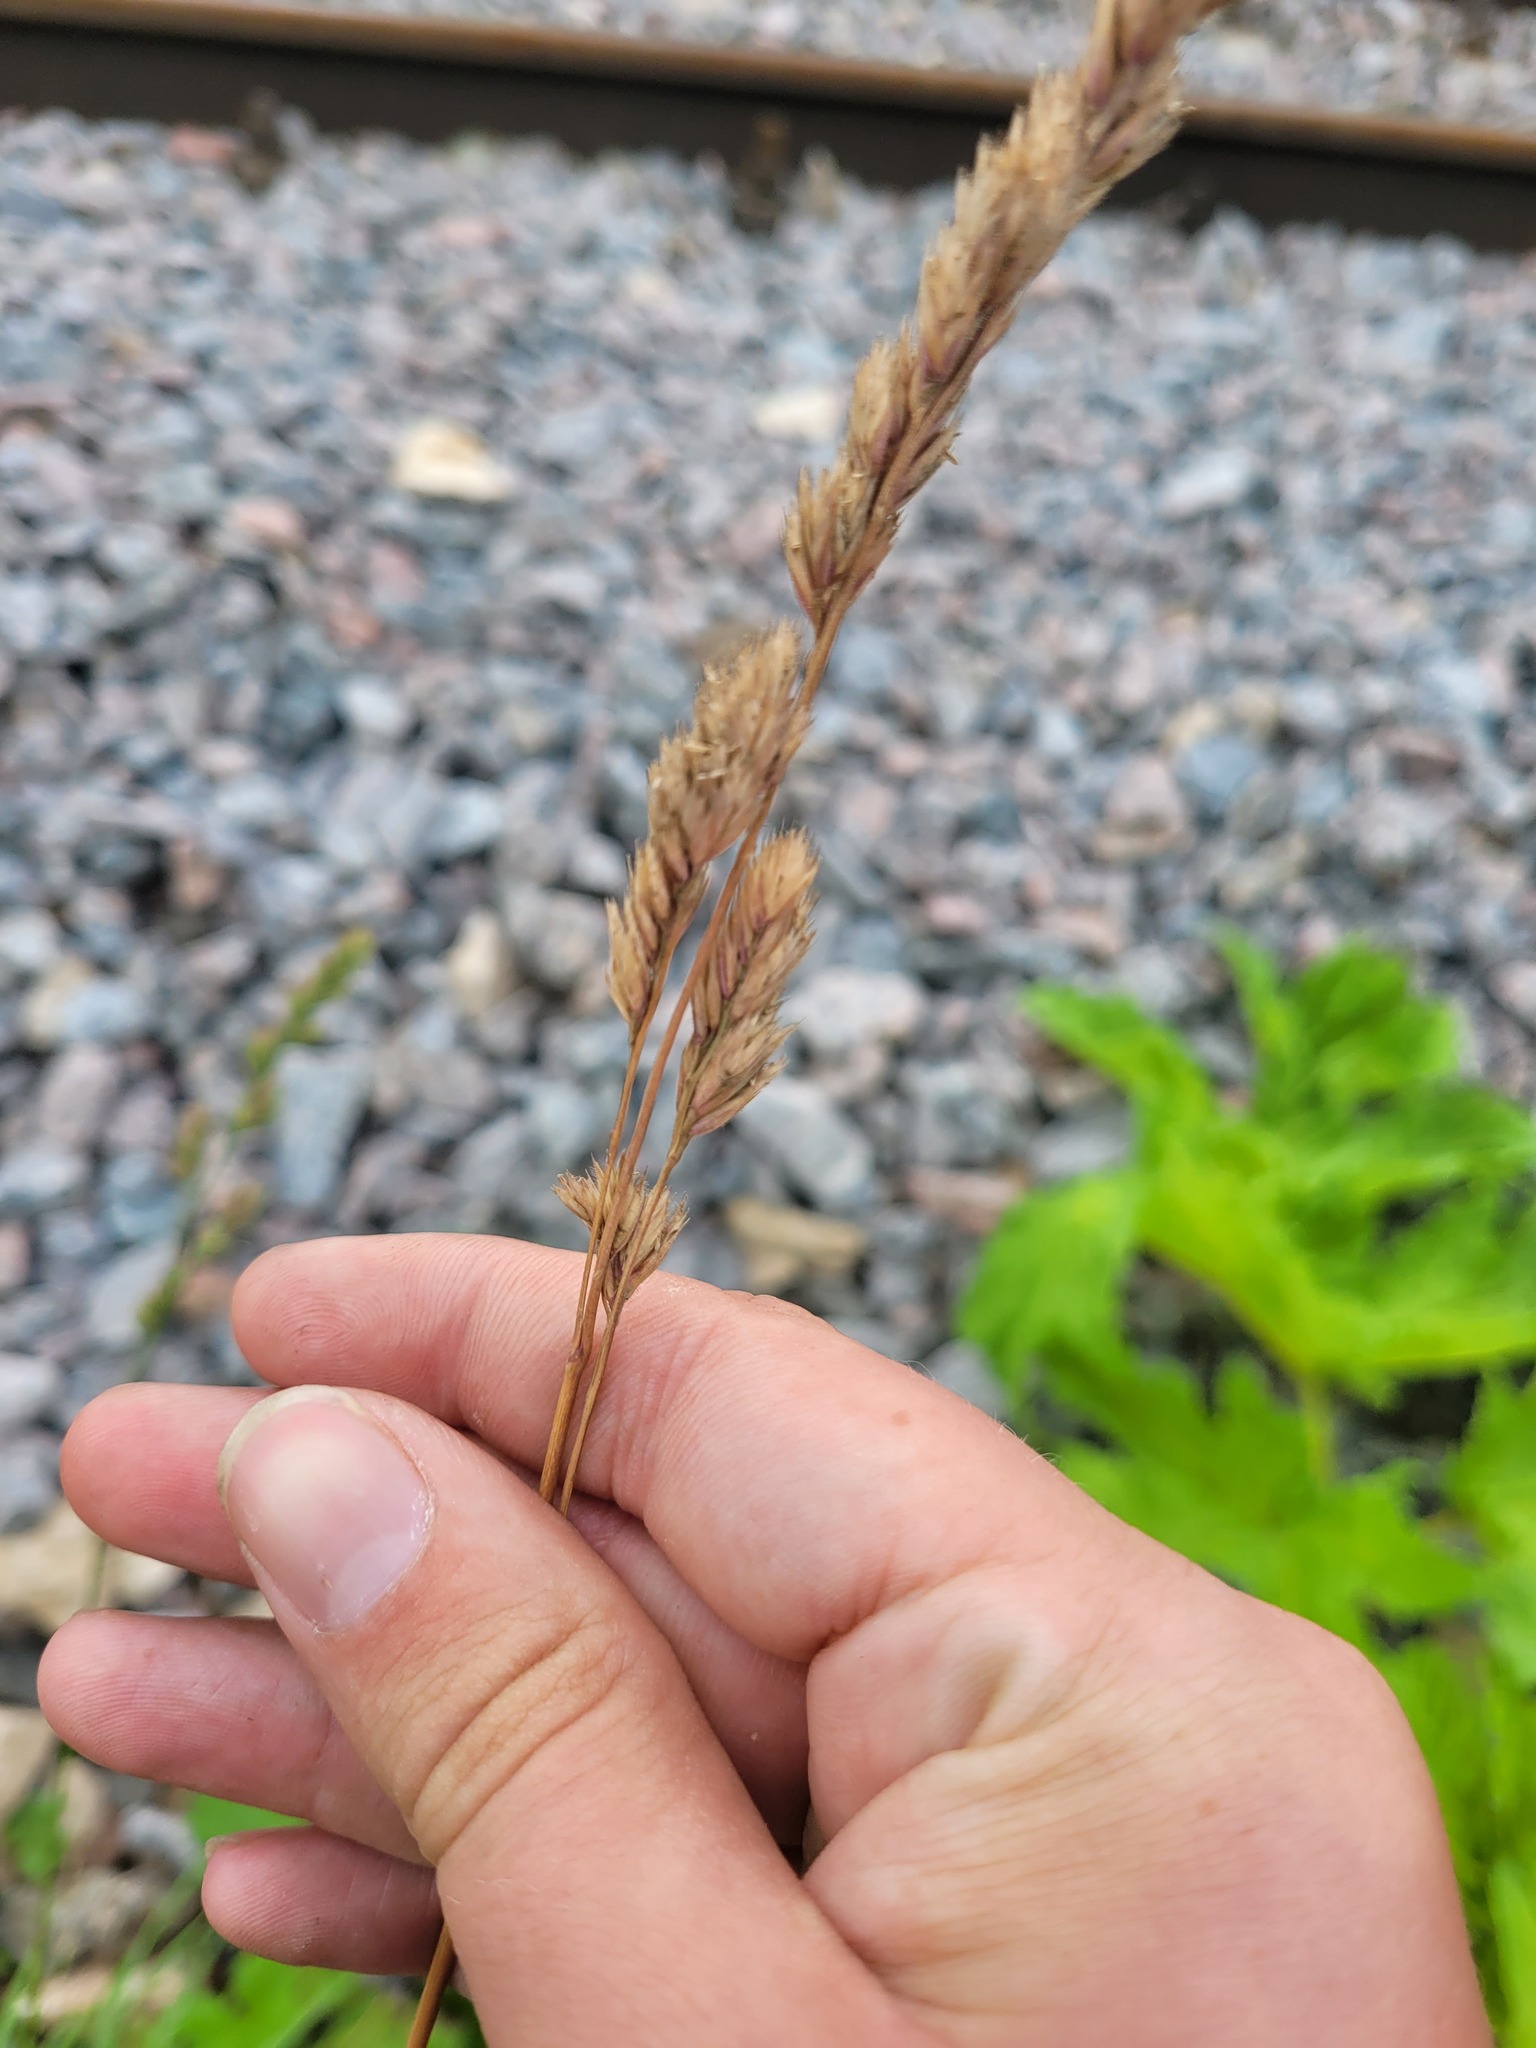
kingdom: Plantae
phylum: Tracheophyta
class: Liliopsida
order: Poales
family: Poaceae
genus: Dactylis
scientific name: Dactylis glomerata
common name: Orchardgrass
